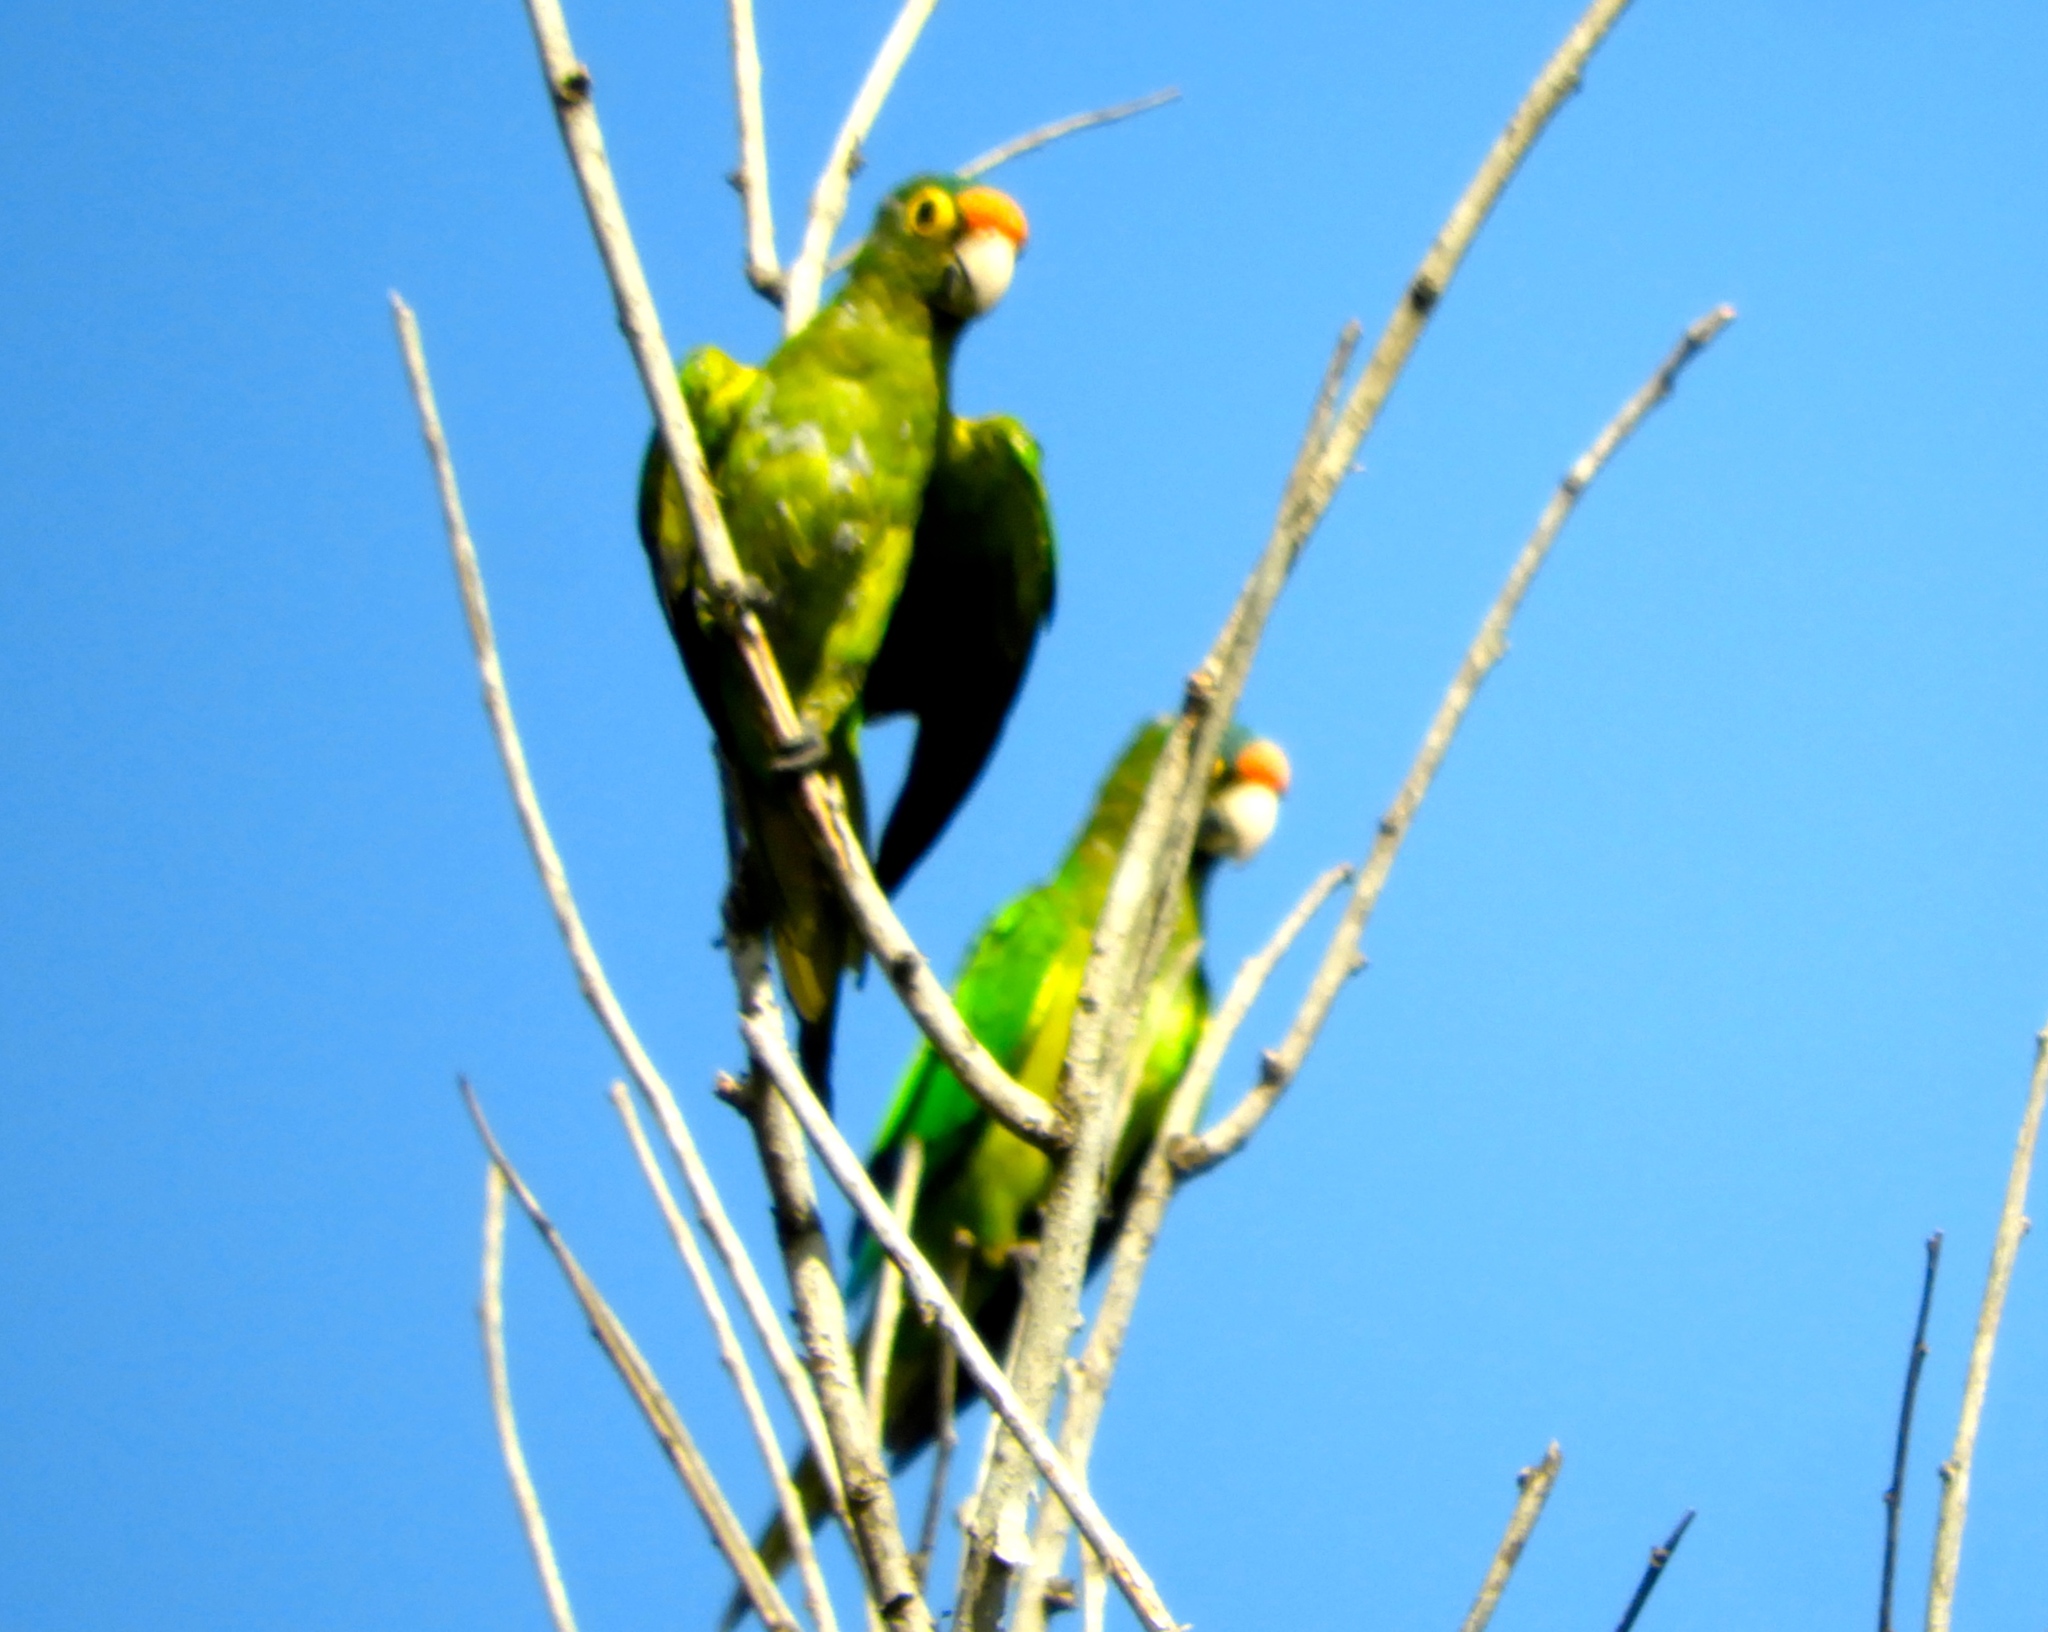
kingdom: Animalia
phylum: Chordata
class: Aves
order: Psittaciformes
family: Psittacidae
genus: Aratinga
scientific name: Aratinga canicularis
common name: Orange-fronted parakeet
